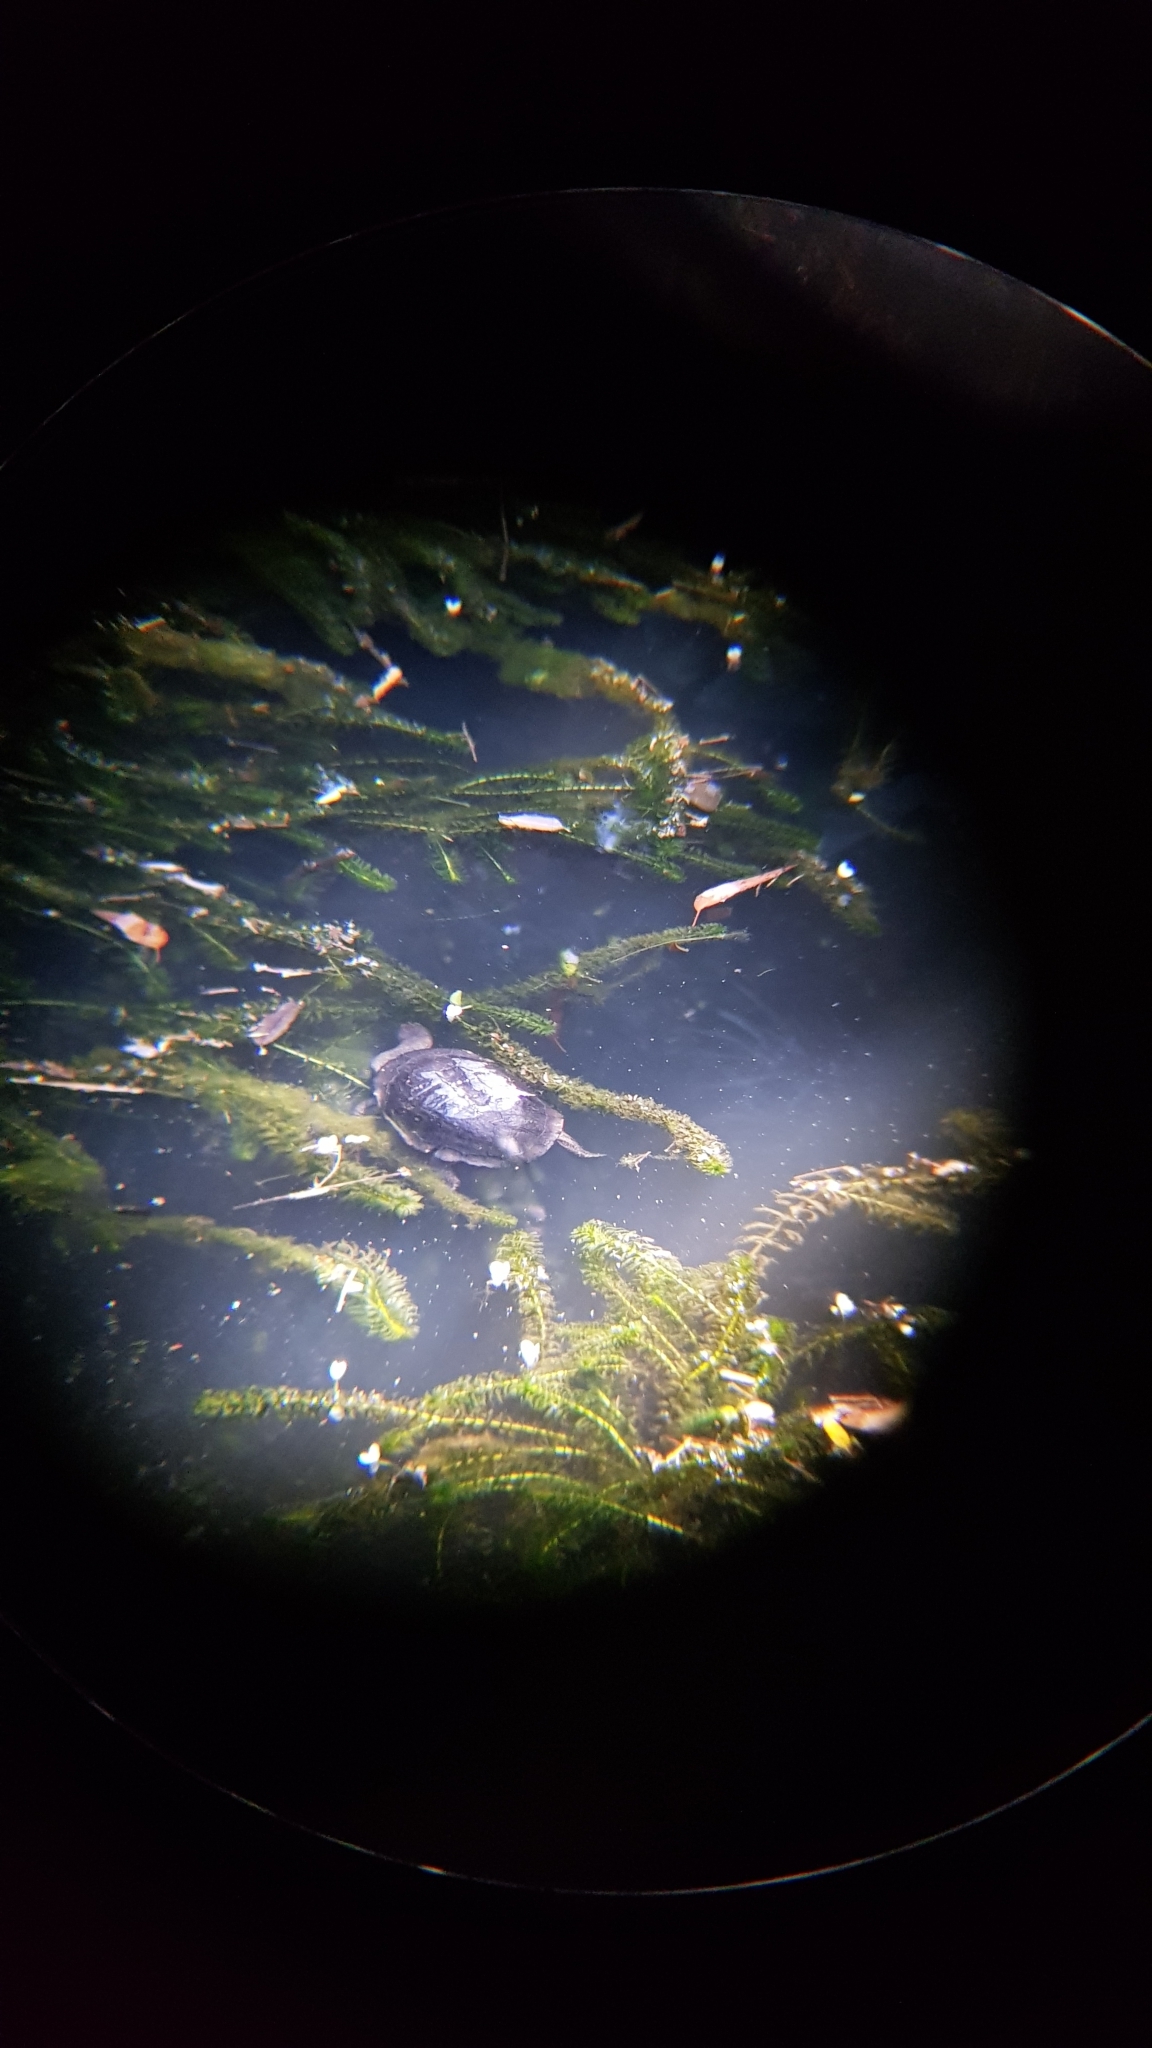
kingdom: Animalia
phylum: Chordata
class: Testudines
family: Chelidae
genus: Chelodina
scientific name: Chelodina longicollis
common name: Eastern snake-necked turtle
